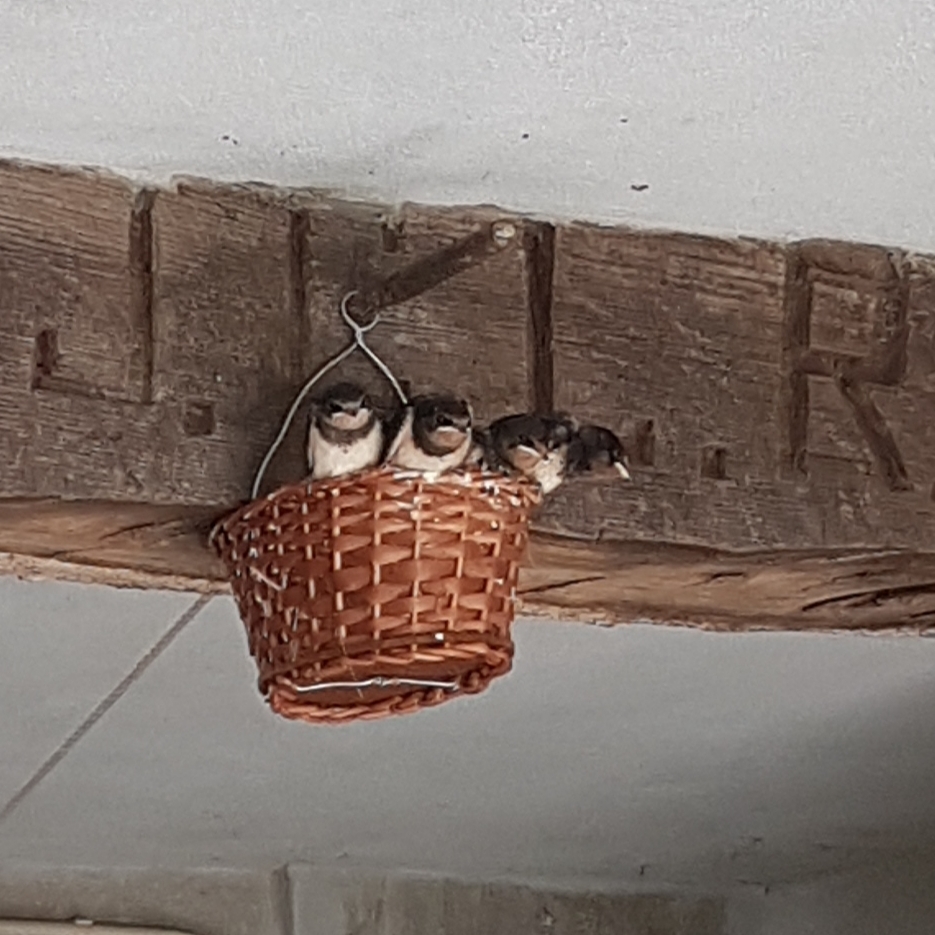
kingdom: Animalia
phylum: Chordata
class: Aves
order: Passeriformes
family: Hirundinidae
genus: Hirundo
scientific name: Hirundo rustica
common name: Barn swallow
